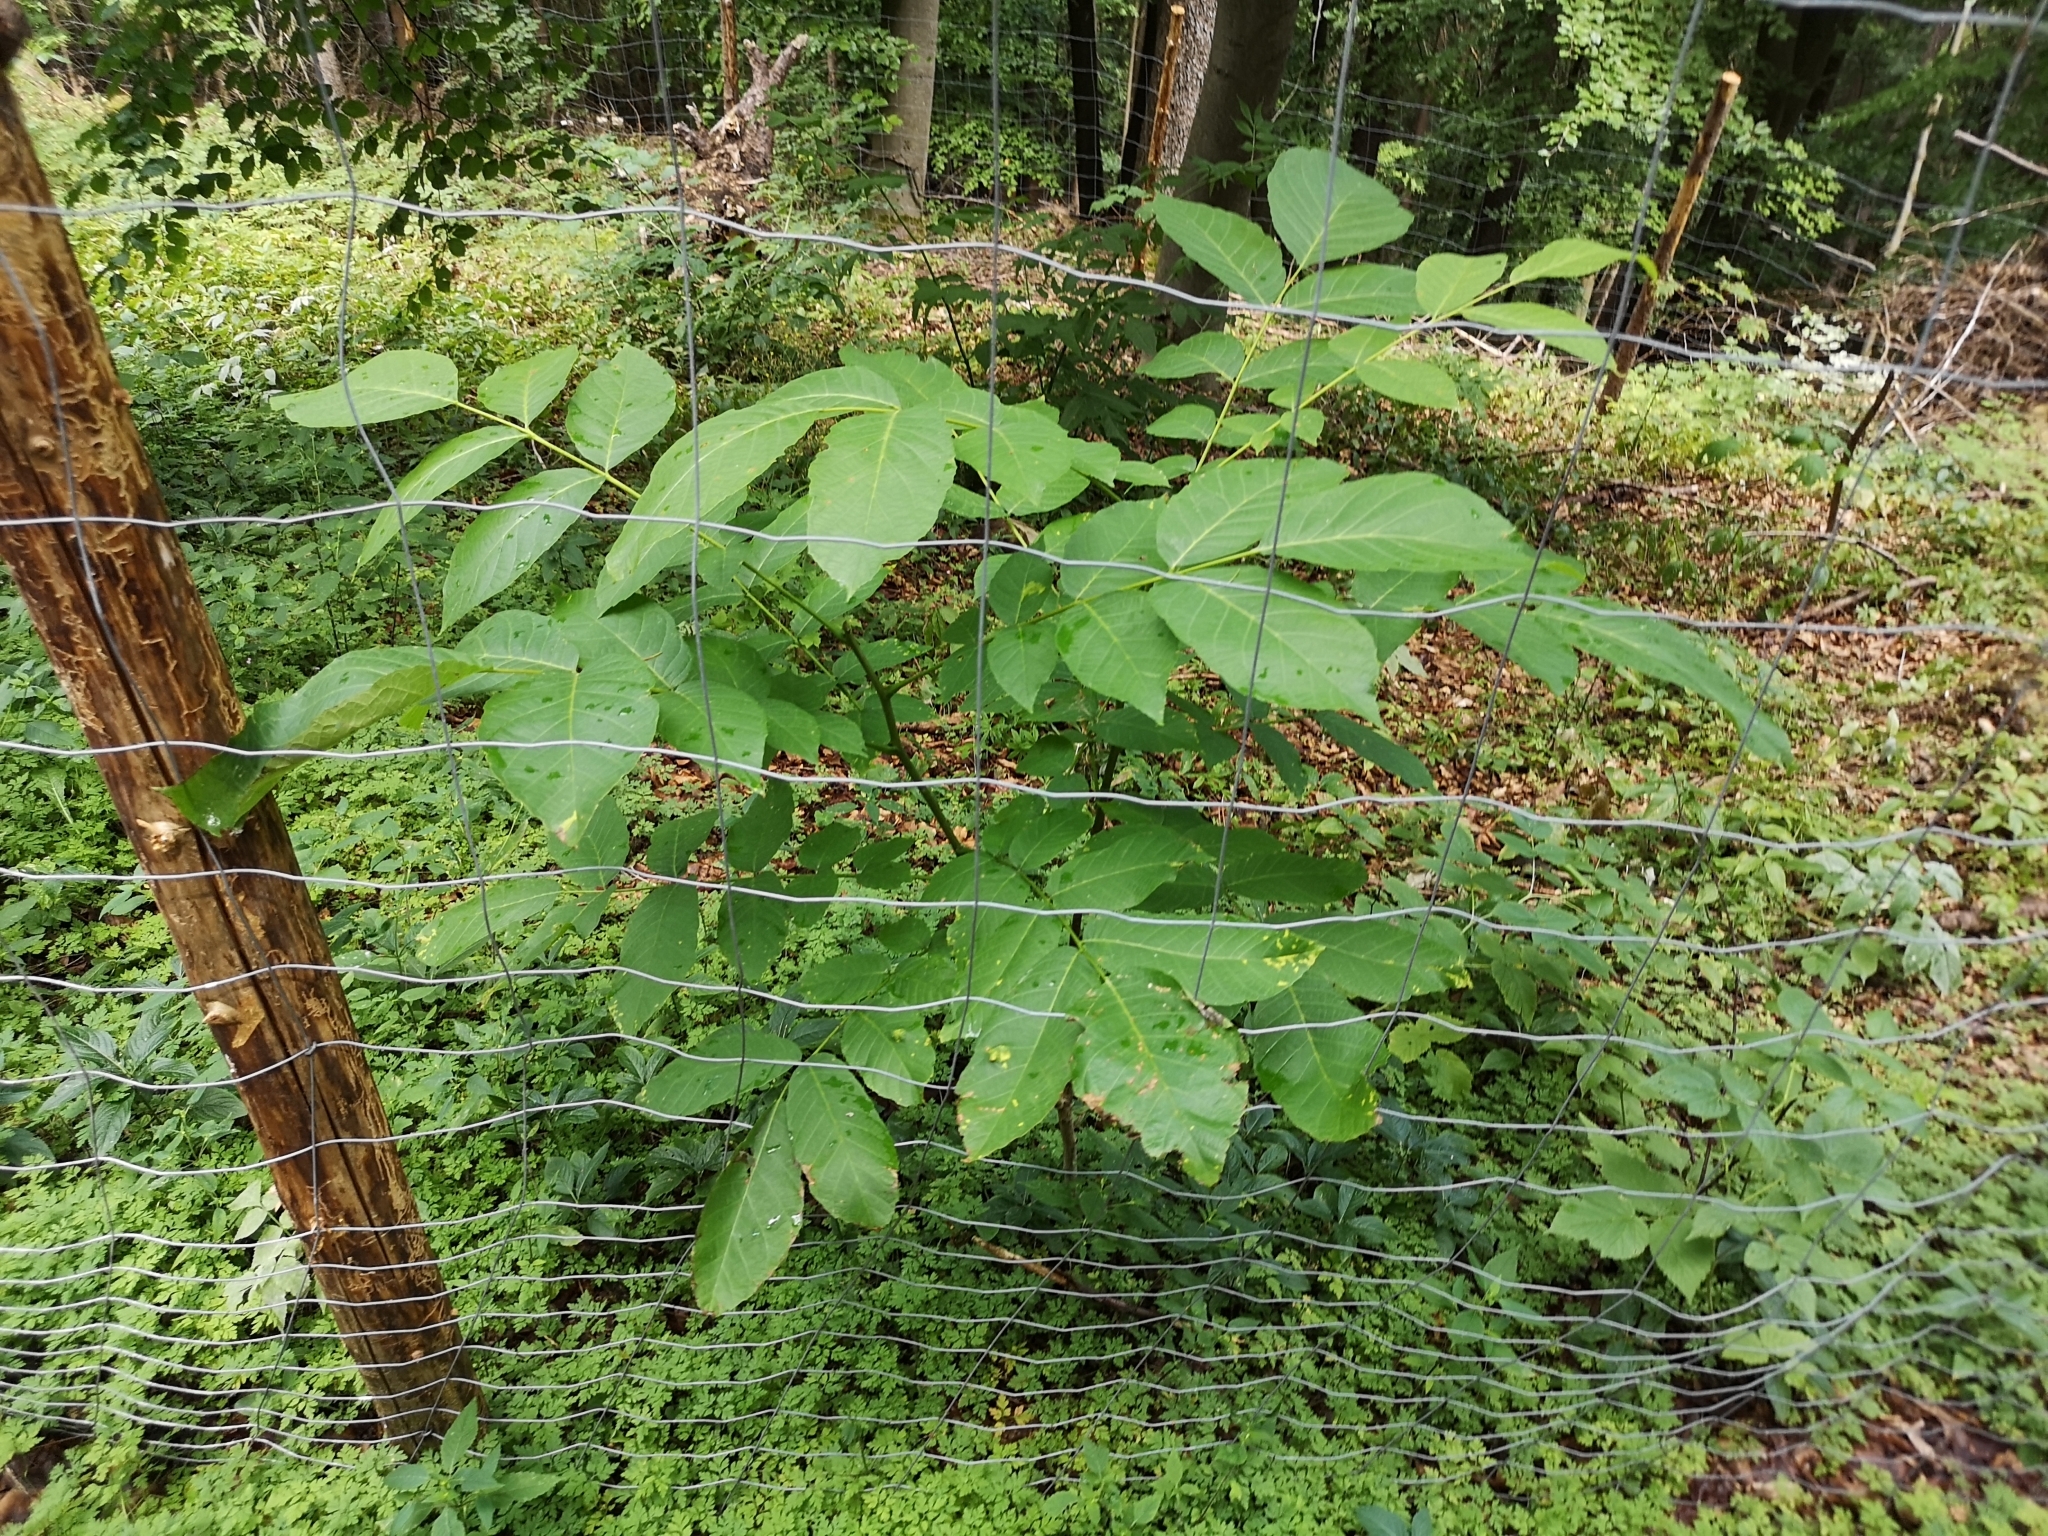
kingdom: Plantae
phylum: Tracheophyta
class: Magnoliopsida
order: Fagales
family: Juglandaceae
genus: Juglans
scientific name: Juglans regia
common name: Walnut
